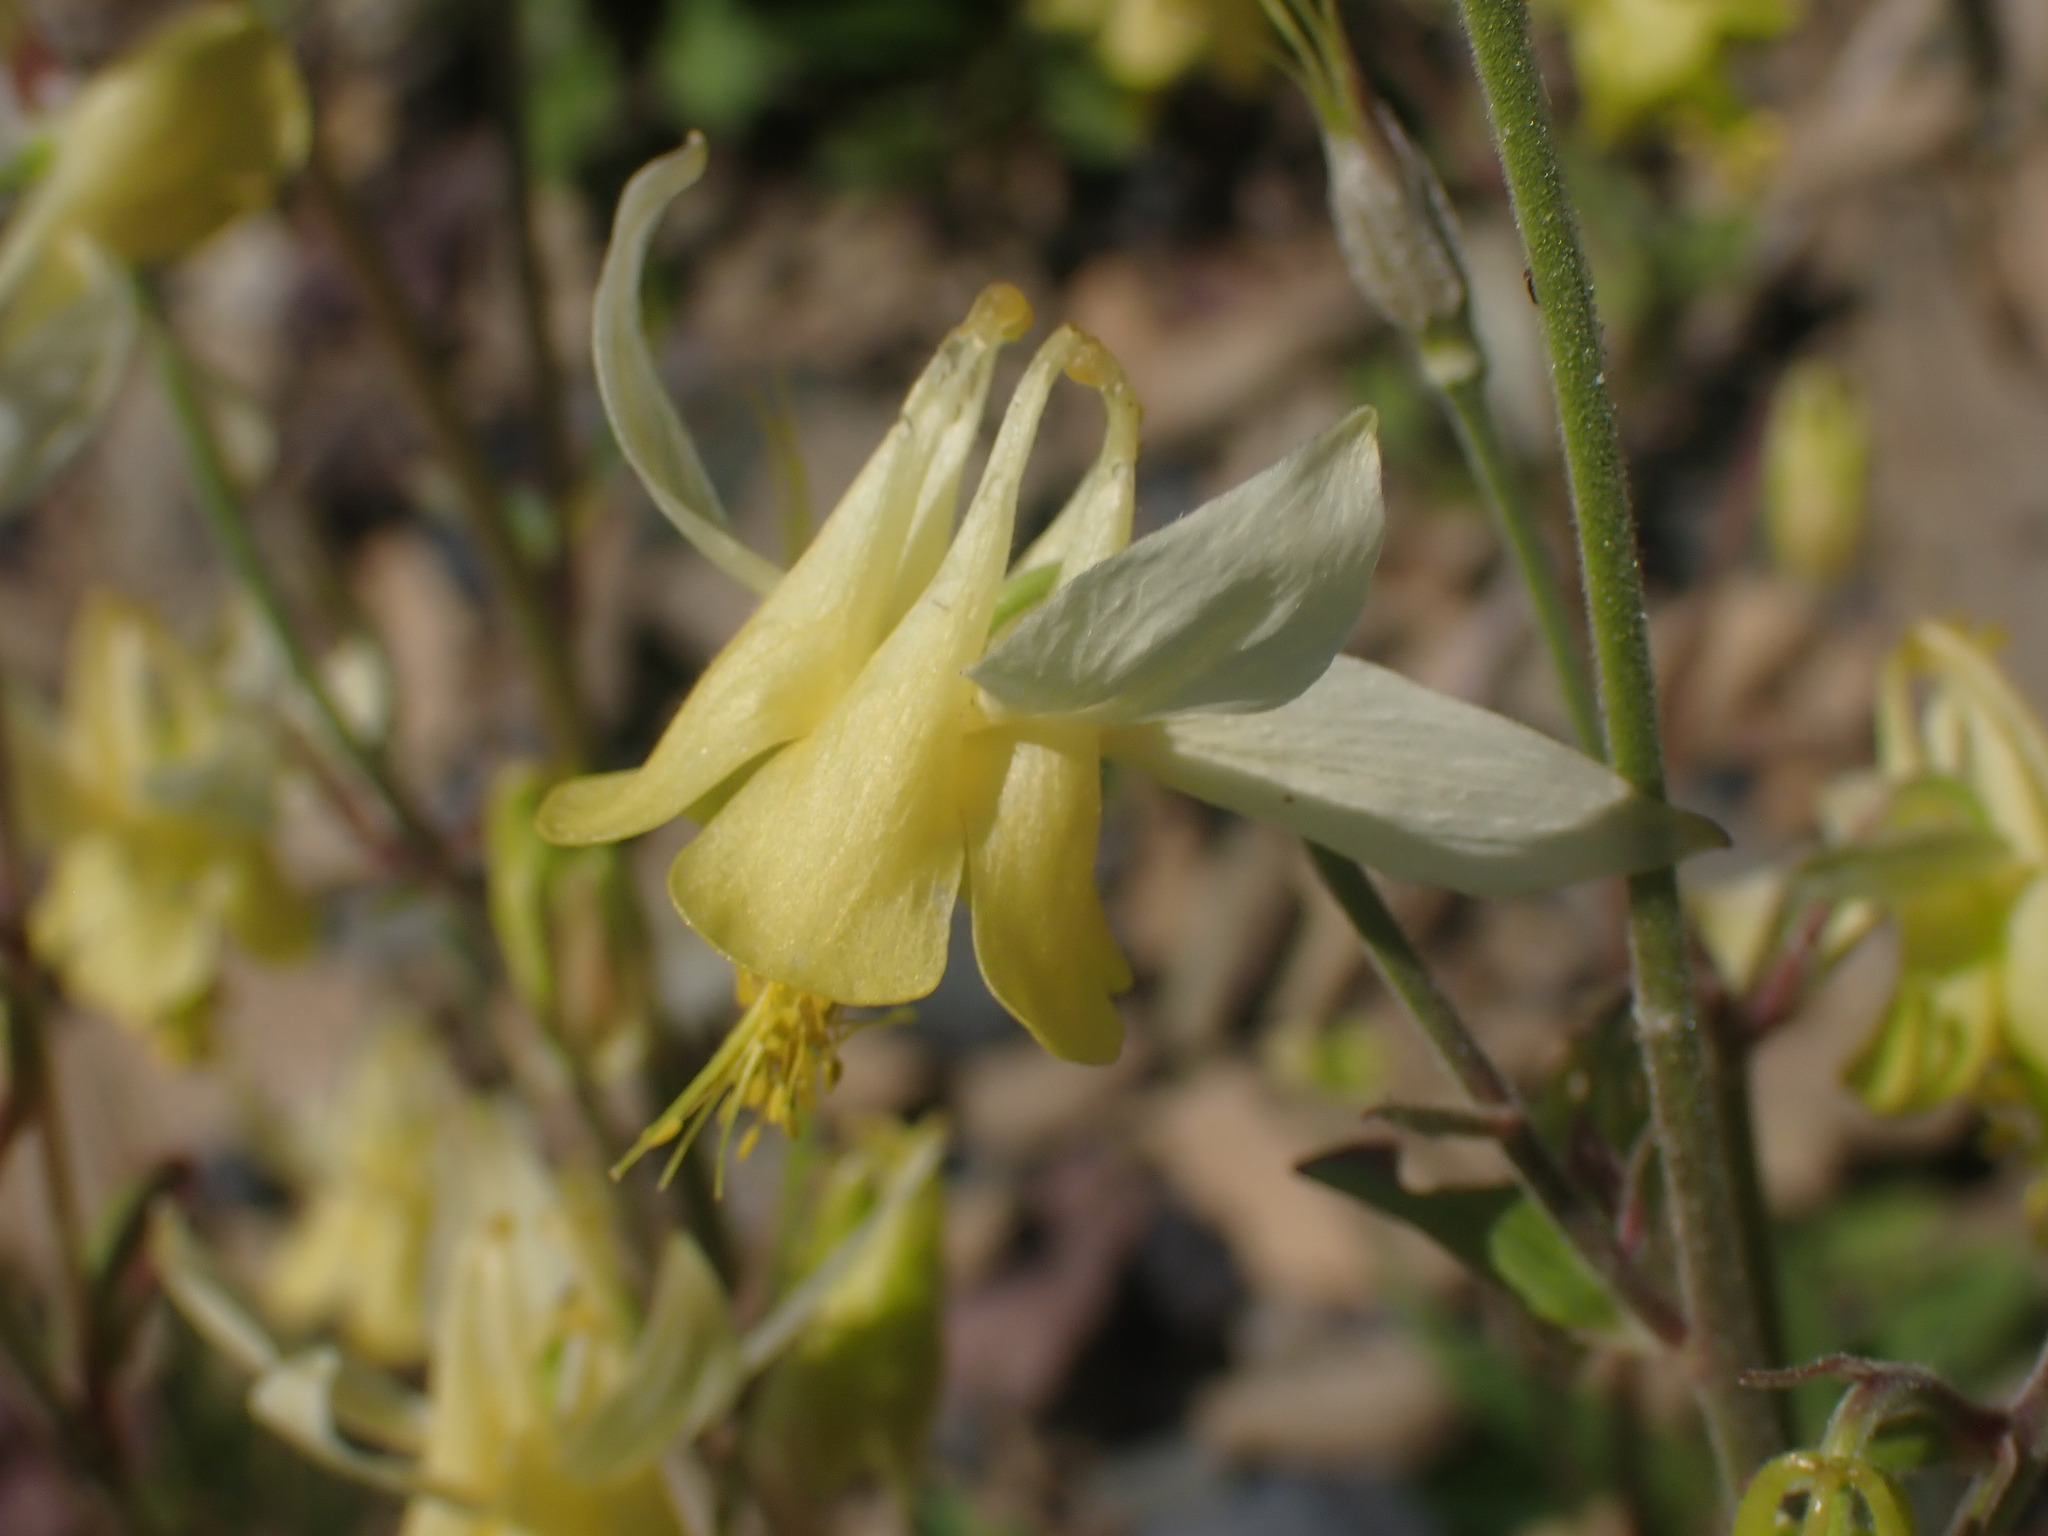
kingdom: Plantae
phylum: Tracheophyta
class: Magnoliopsida
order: Ranunculales
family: Ranunculaceae
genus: Aquilegia
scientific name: Aquilegia flavescens
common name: Yellow columbine
